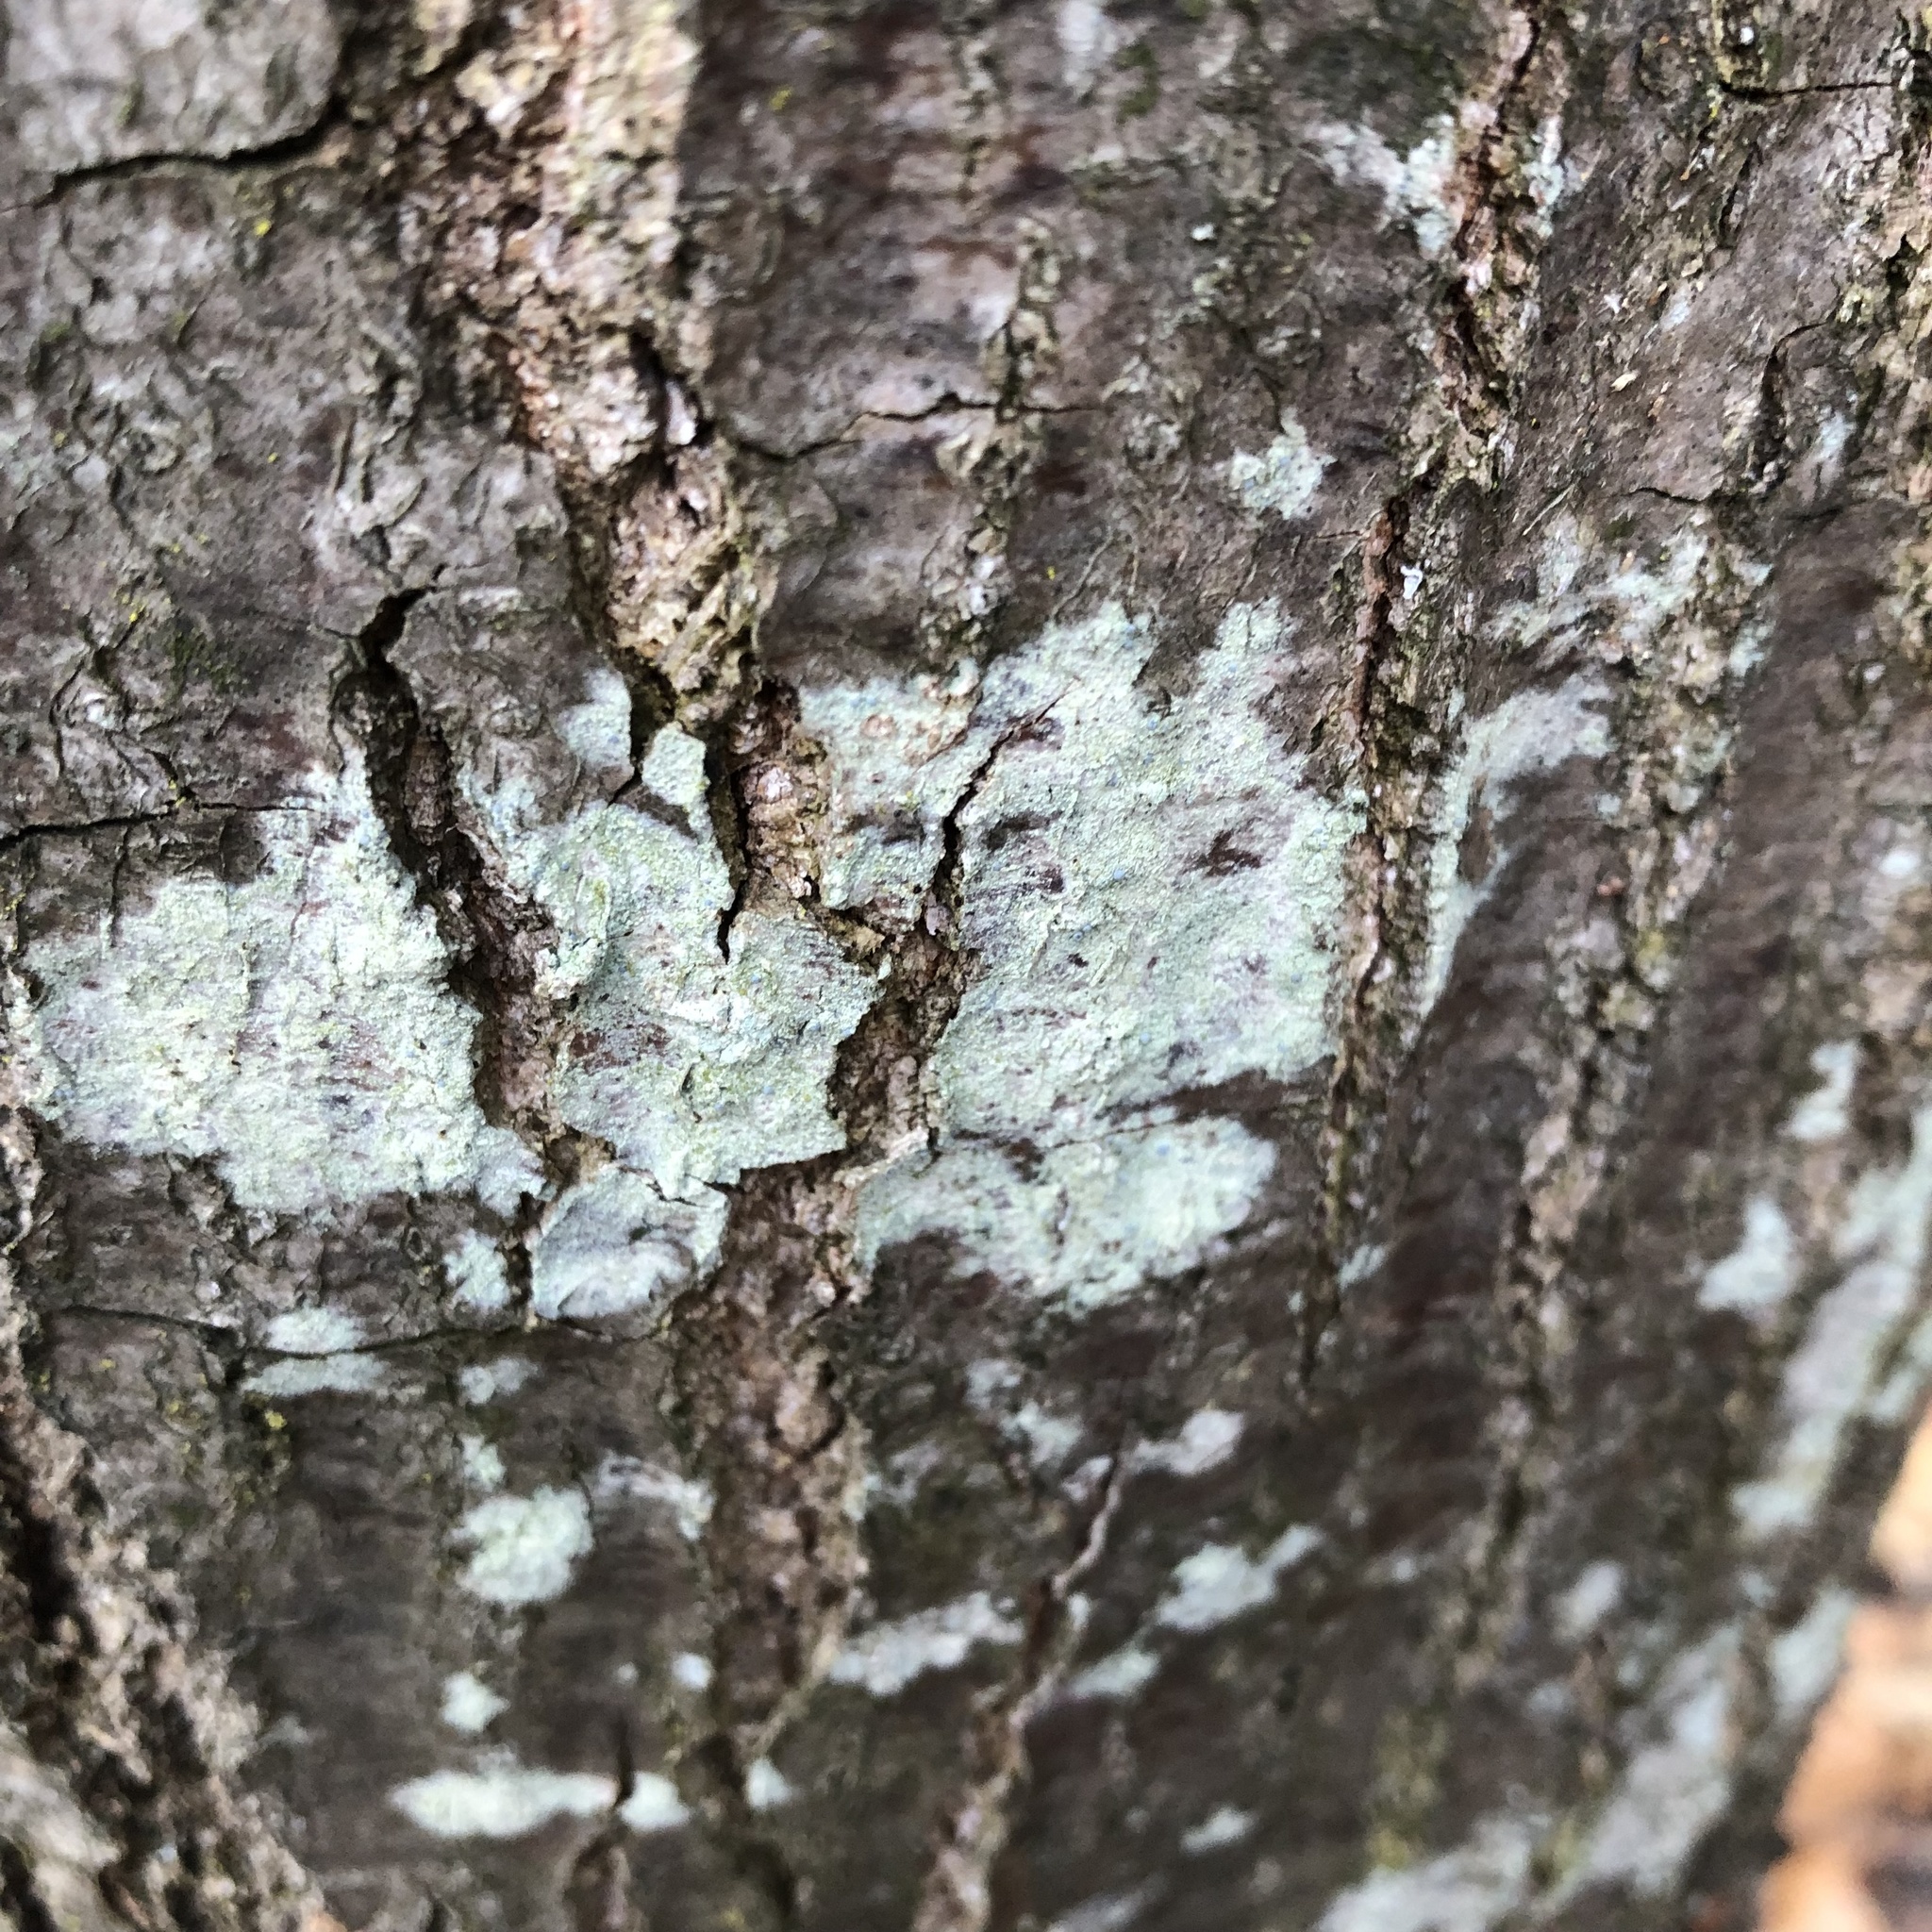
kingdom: Fungi
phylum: Ascomycota
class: Lecanoromycetes
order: Pertusariales
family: Pertusariaceae
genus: Verseghya
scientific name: Verseghya thysanophora
